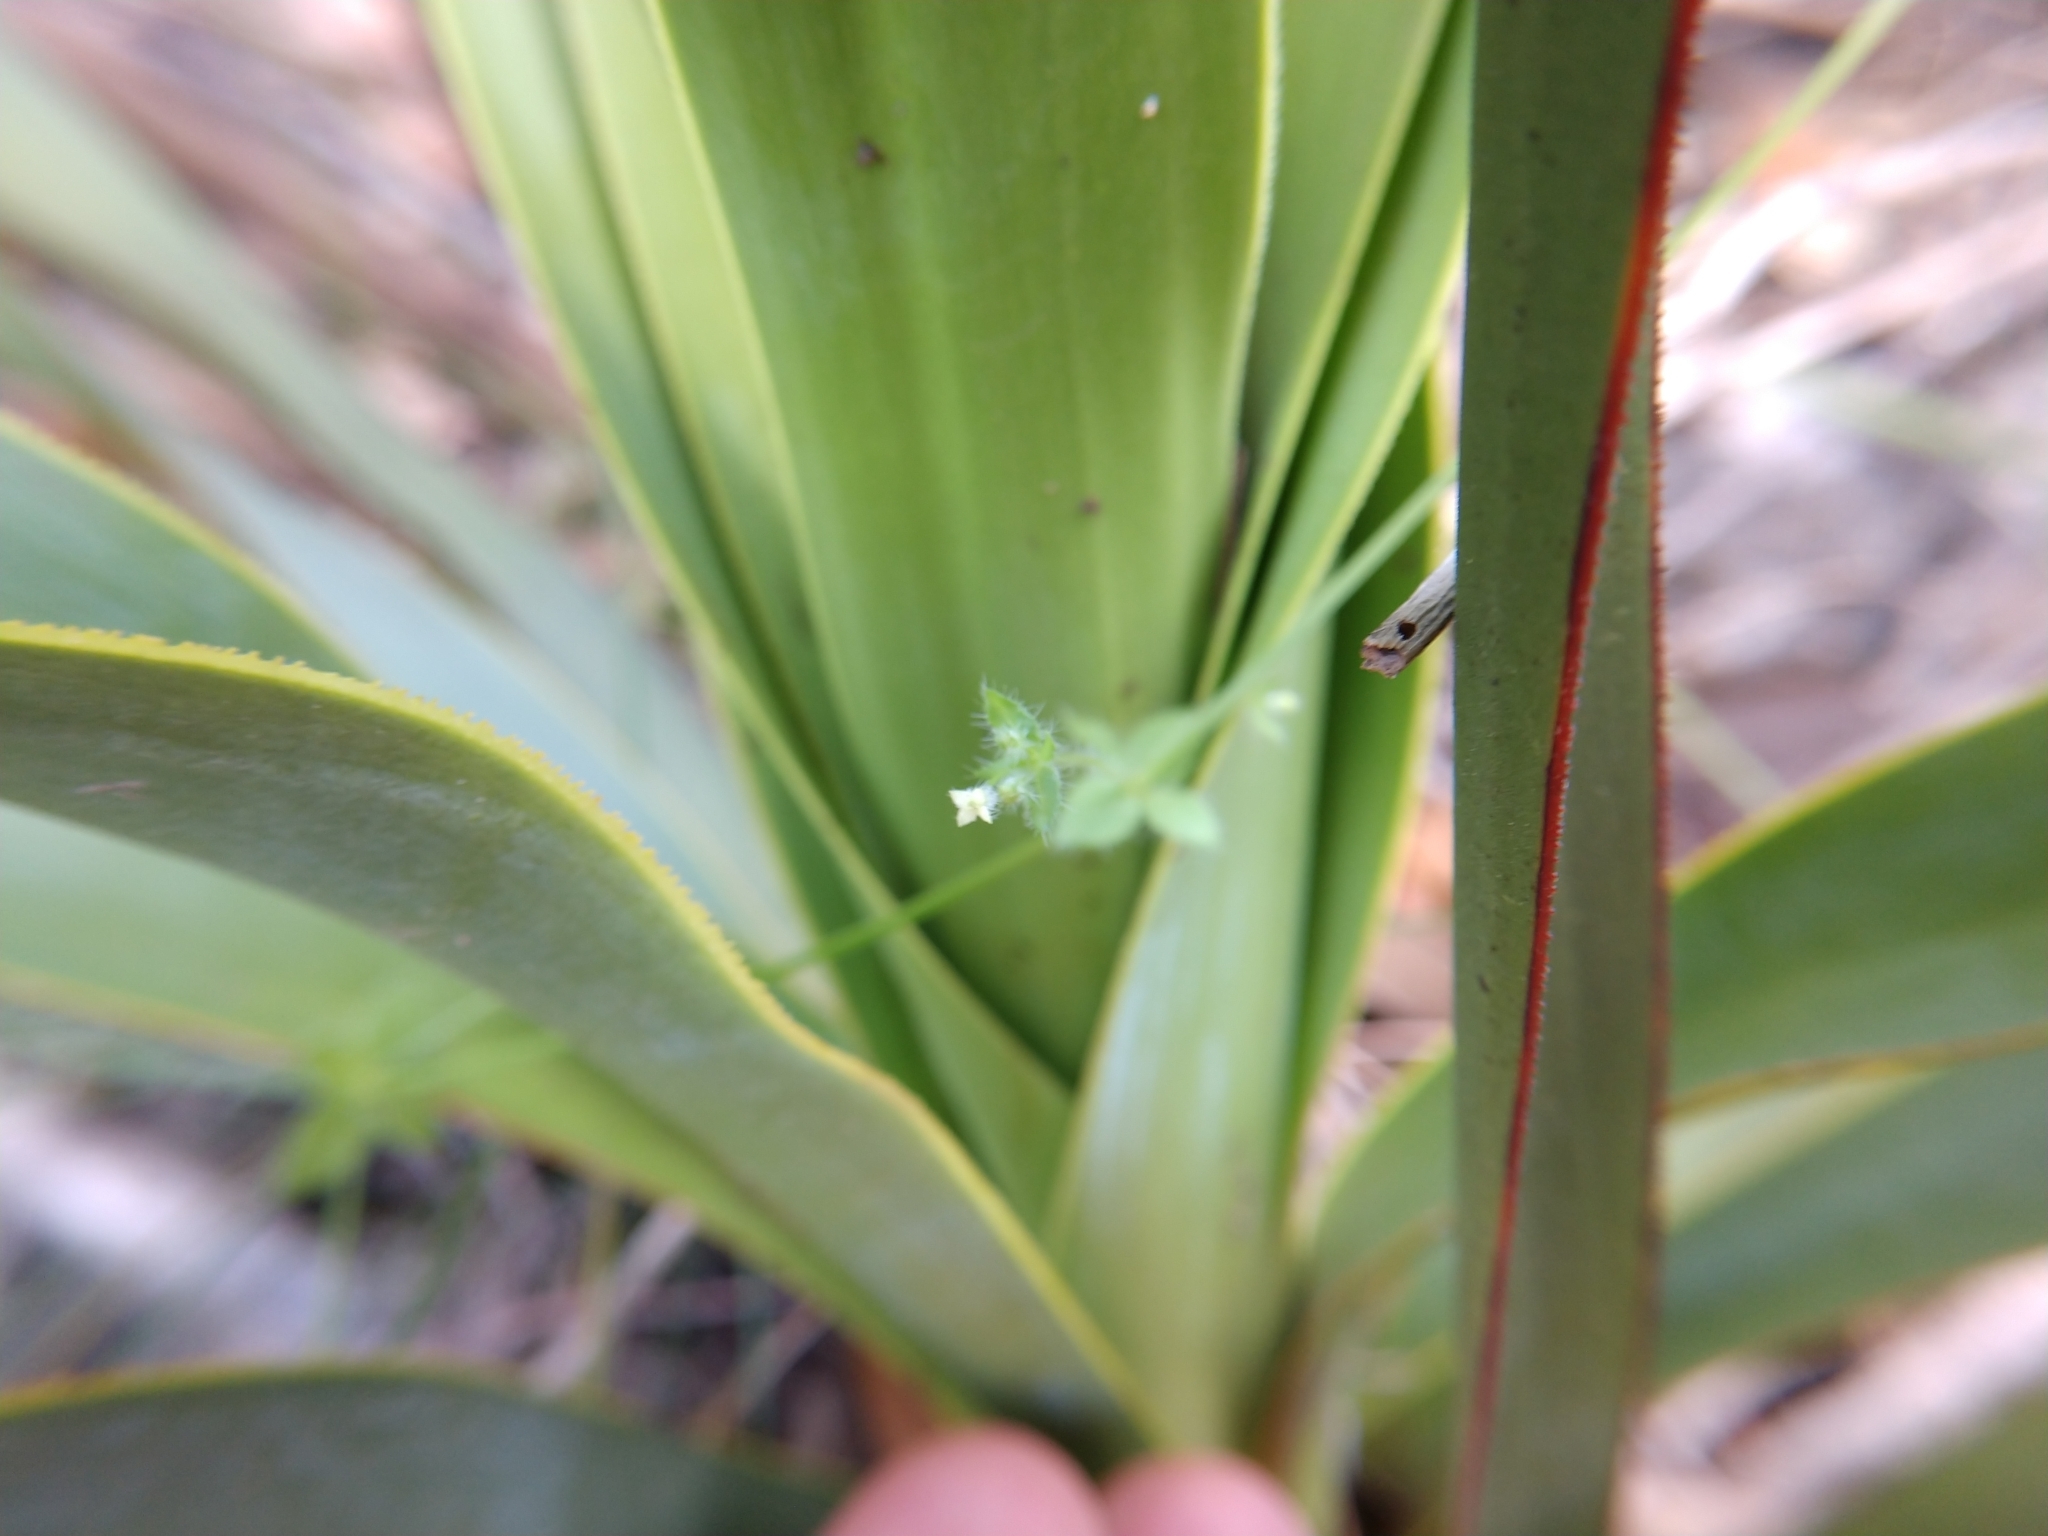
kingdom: Plantae
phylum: Tracheophyta
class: Magnoliopsida
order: Gentianales
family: Rubiaceae
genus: Galium
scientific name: Galium texense
